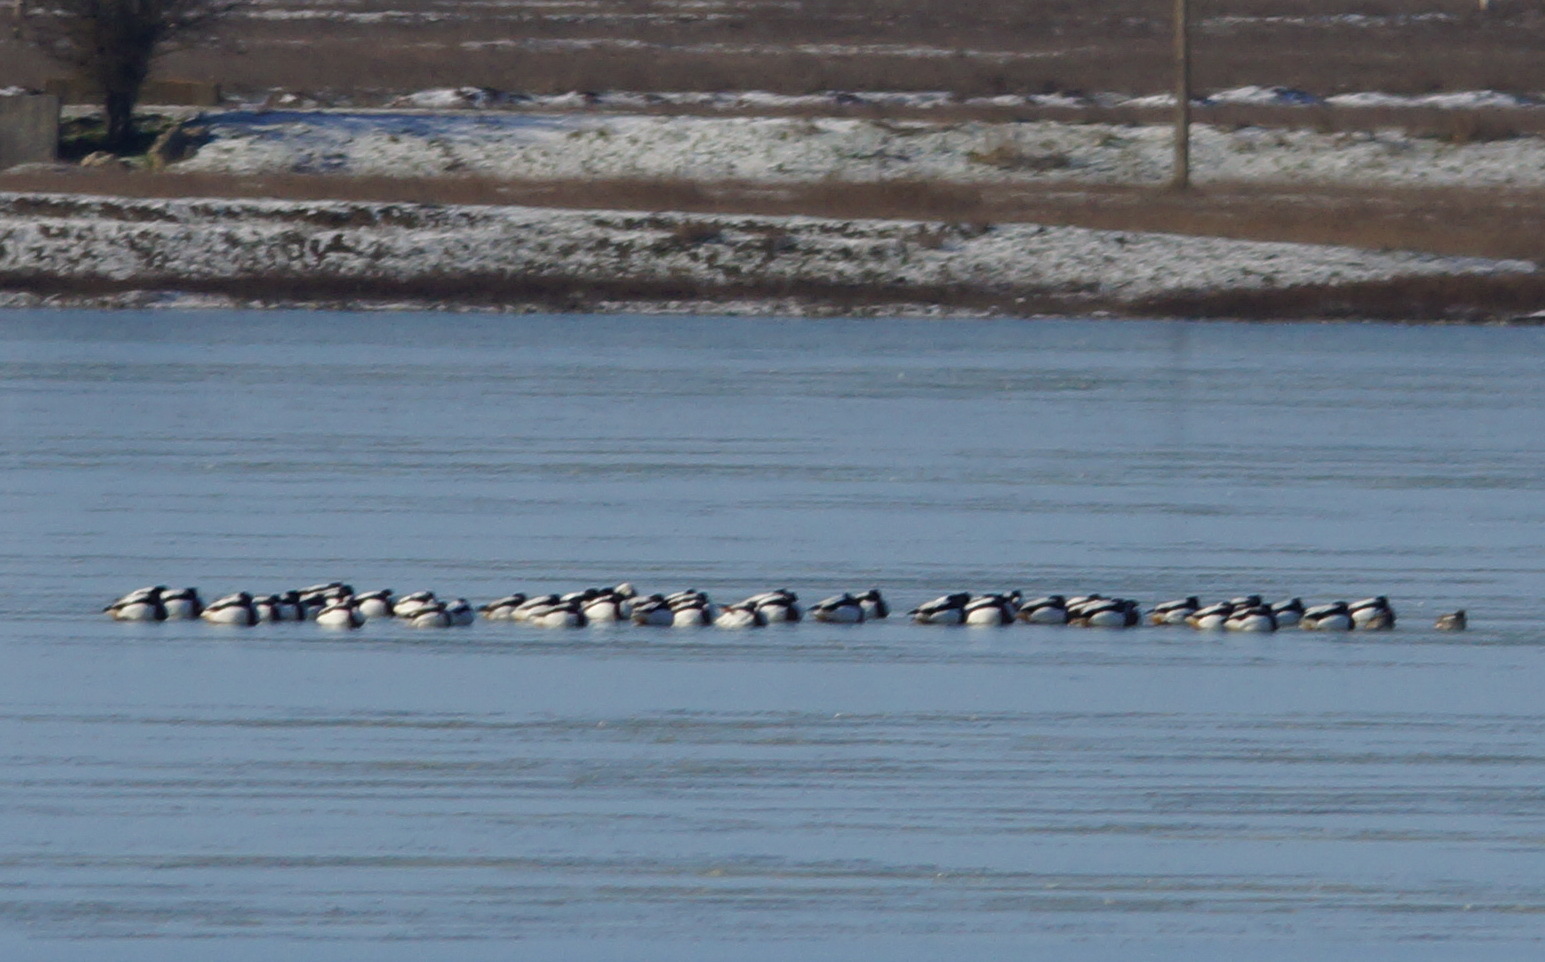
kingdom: Animalia
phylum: Chordata
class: Aves
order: Anseriformes
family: Anatidae
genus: Tadorna
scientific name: Tadorna tadorna
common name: Common shelduck
